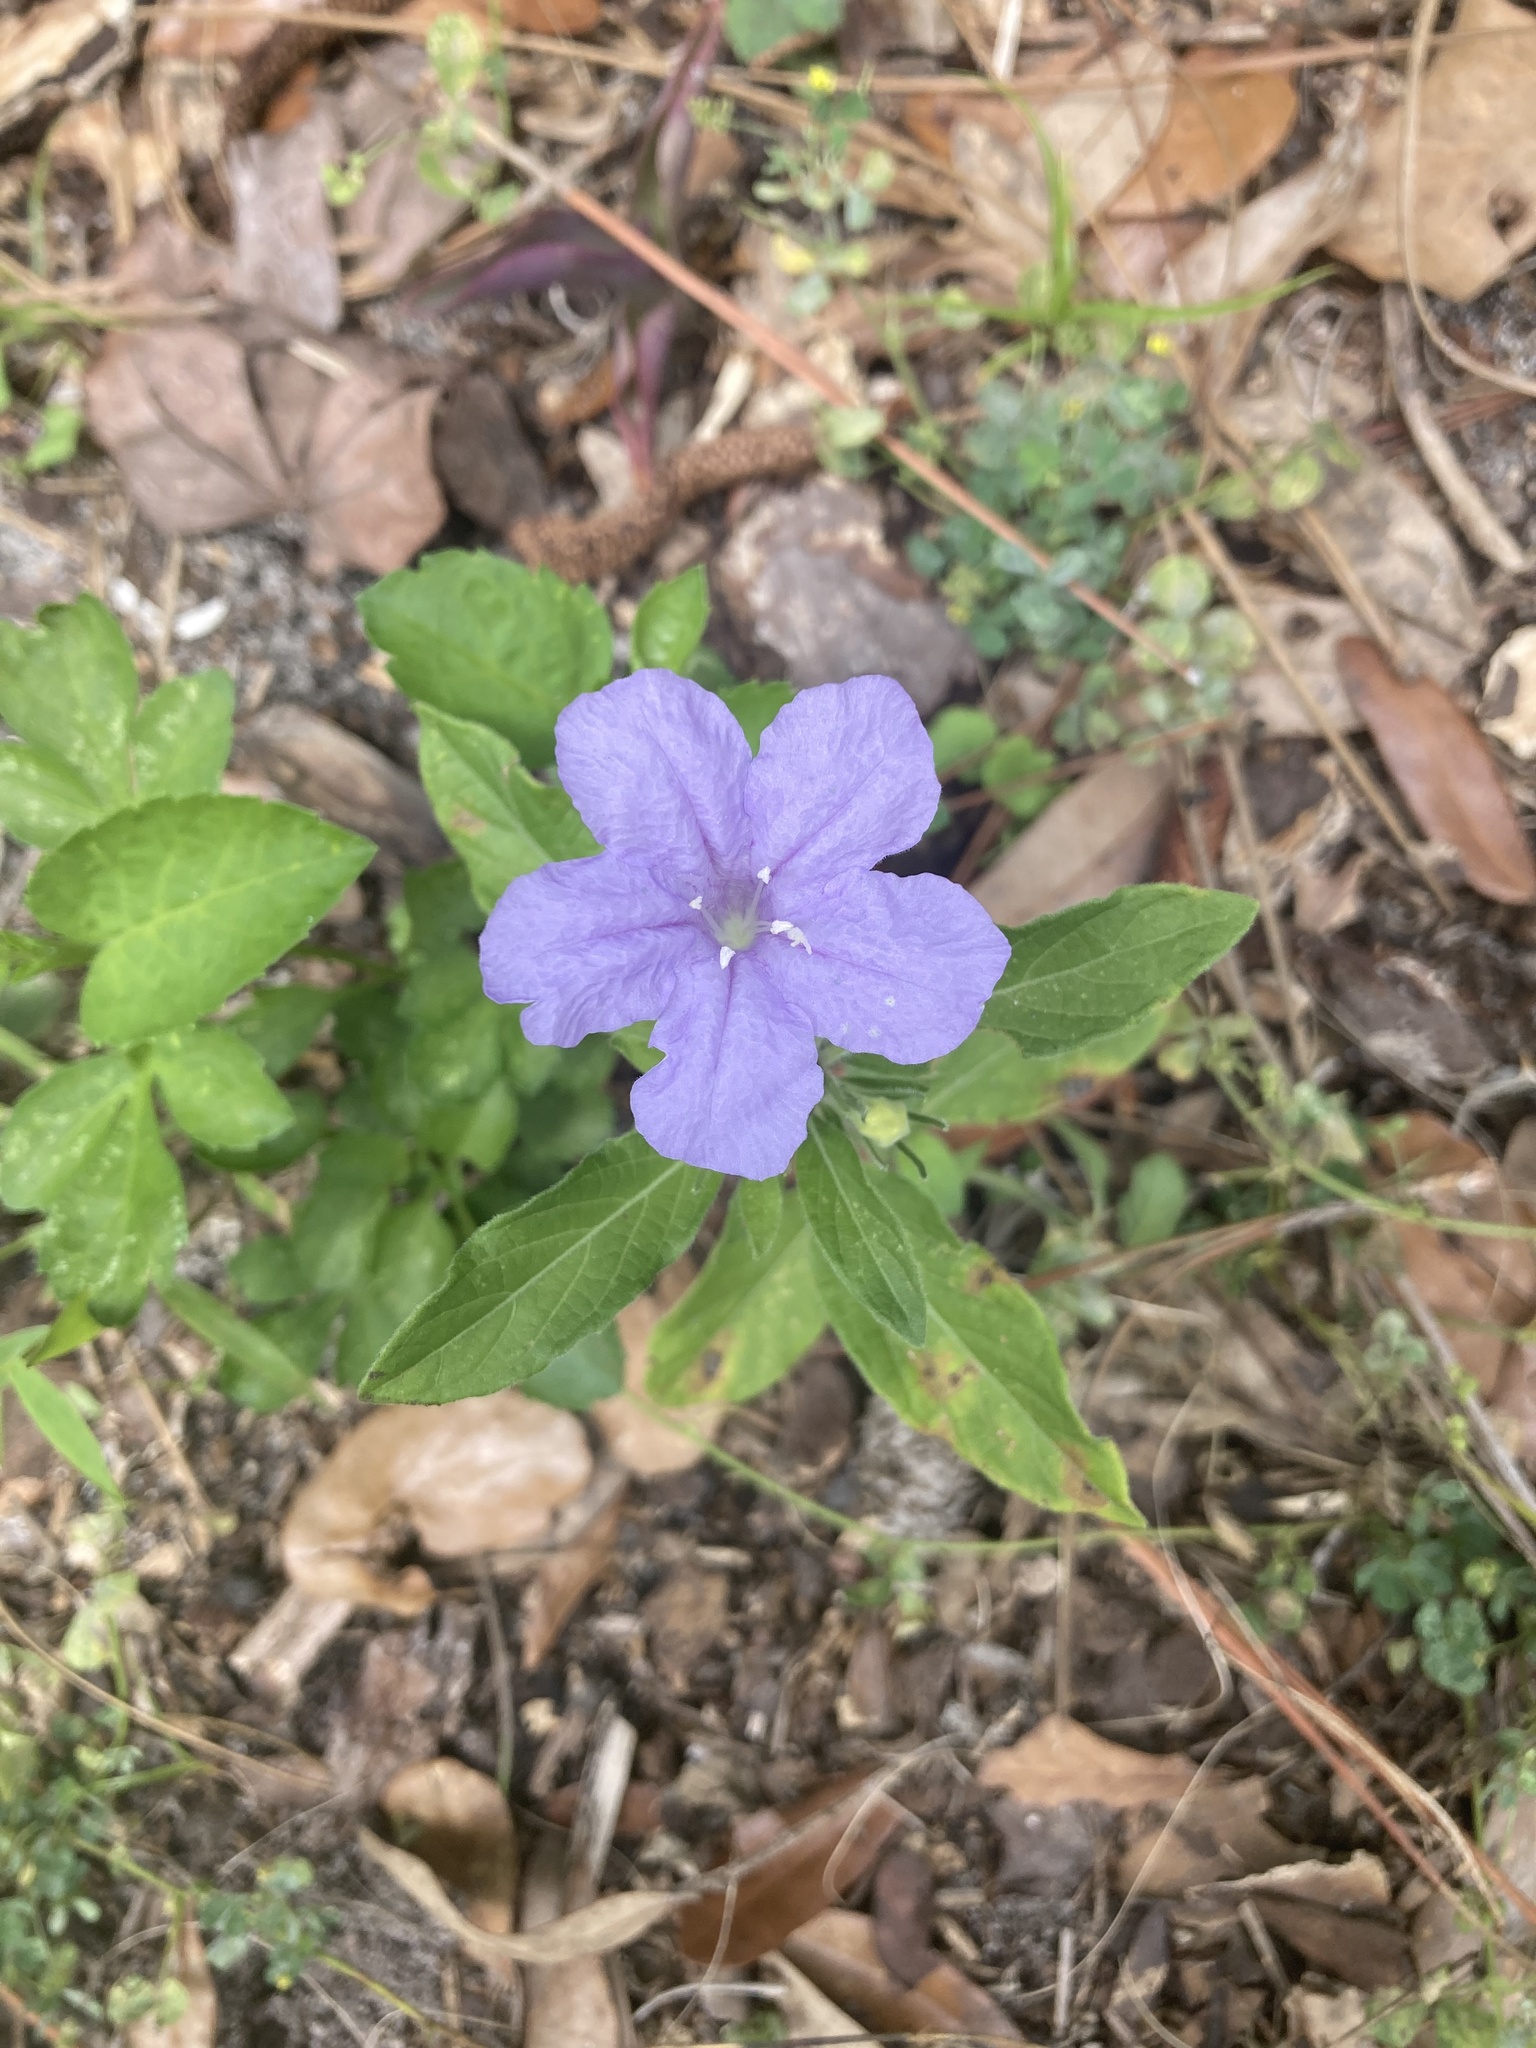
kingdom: Plantae
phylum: Tracheophyta
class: Magnoliopsida
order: Lamiales
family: Acanthaceae
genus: Ruellia
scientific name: Ruellia caroliniensis
